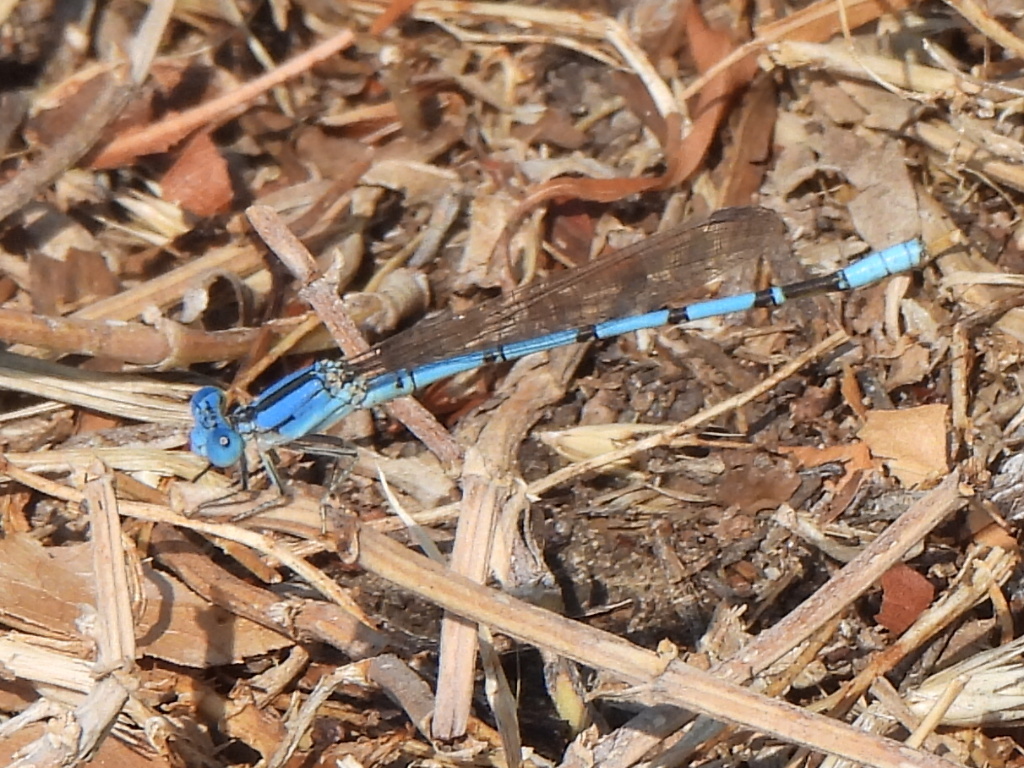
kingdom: Animalia
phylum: Arthropoda
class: Insecta
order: Odonata
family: Coenagrionidae
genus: Argia
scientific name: Argia nahuana
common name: Aztec dancer
